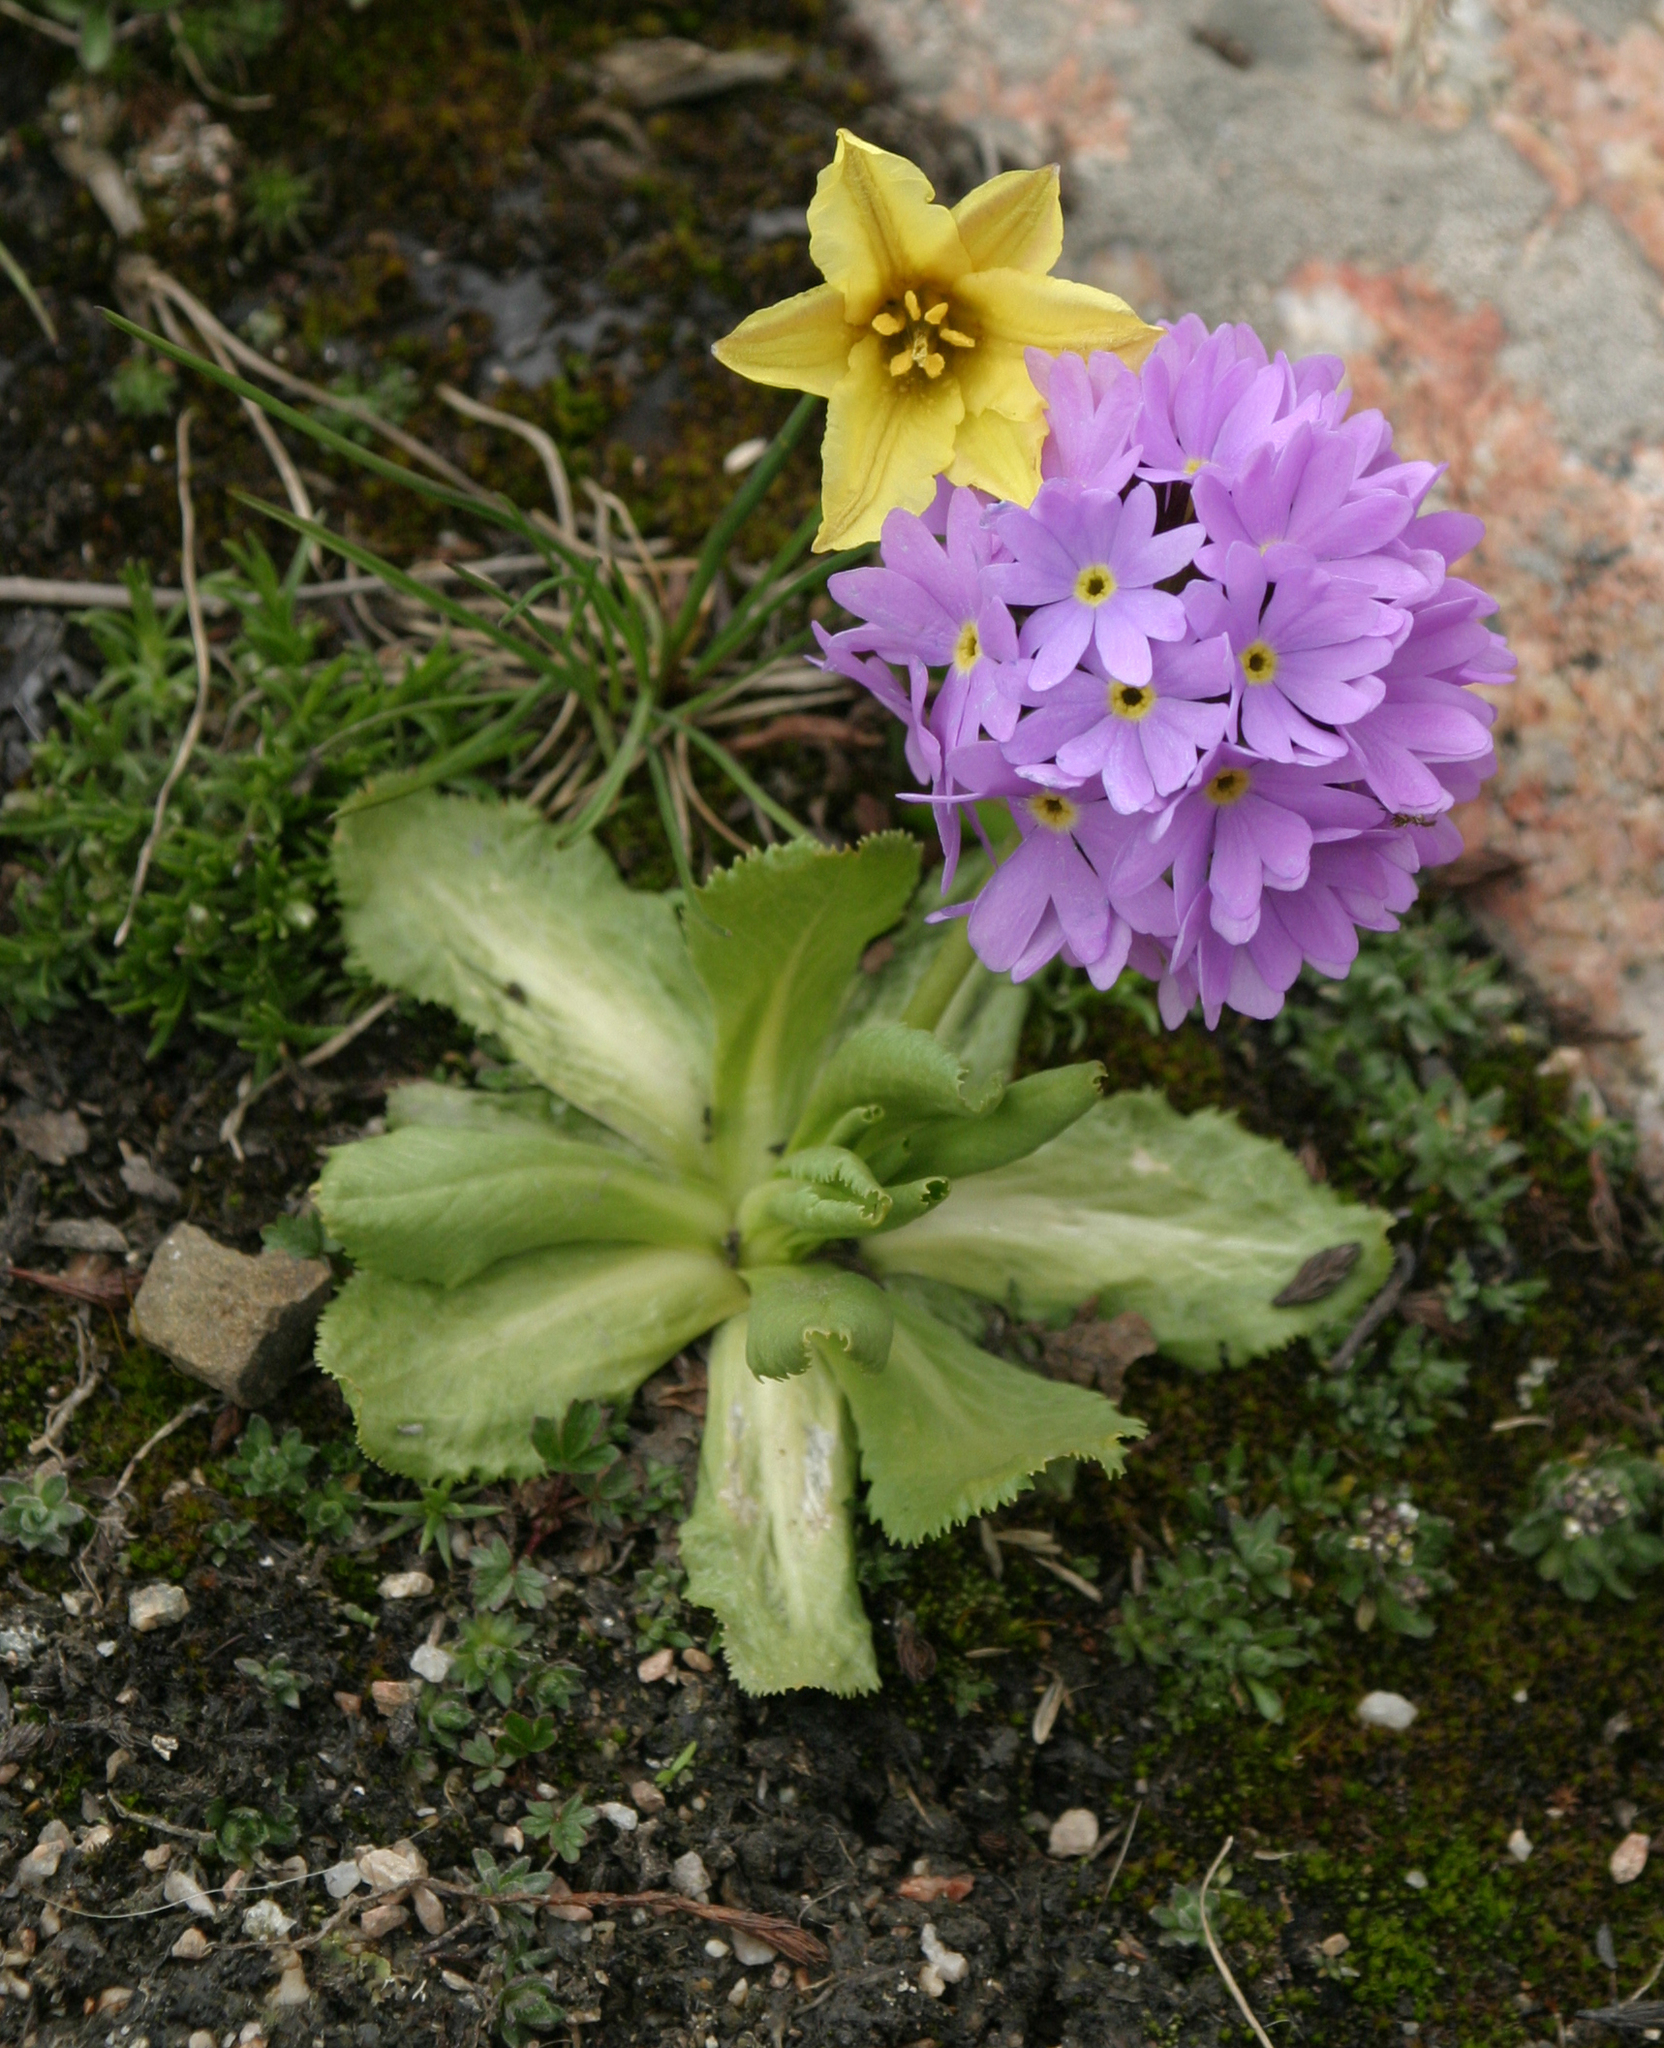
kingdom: Plantae
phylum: Tracheophyta
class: Magnoliopsida
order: Ericales
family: Primulaceae
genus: Primula
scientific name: Primula algida
